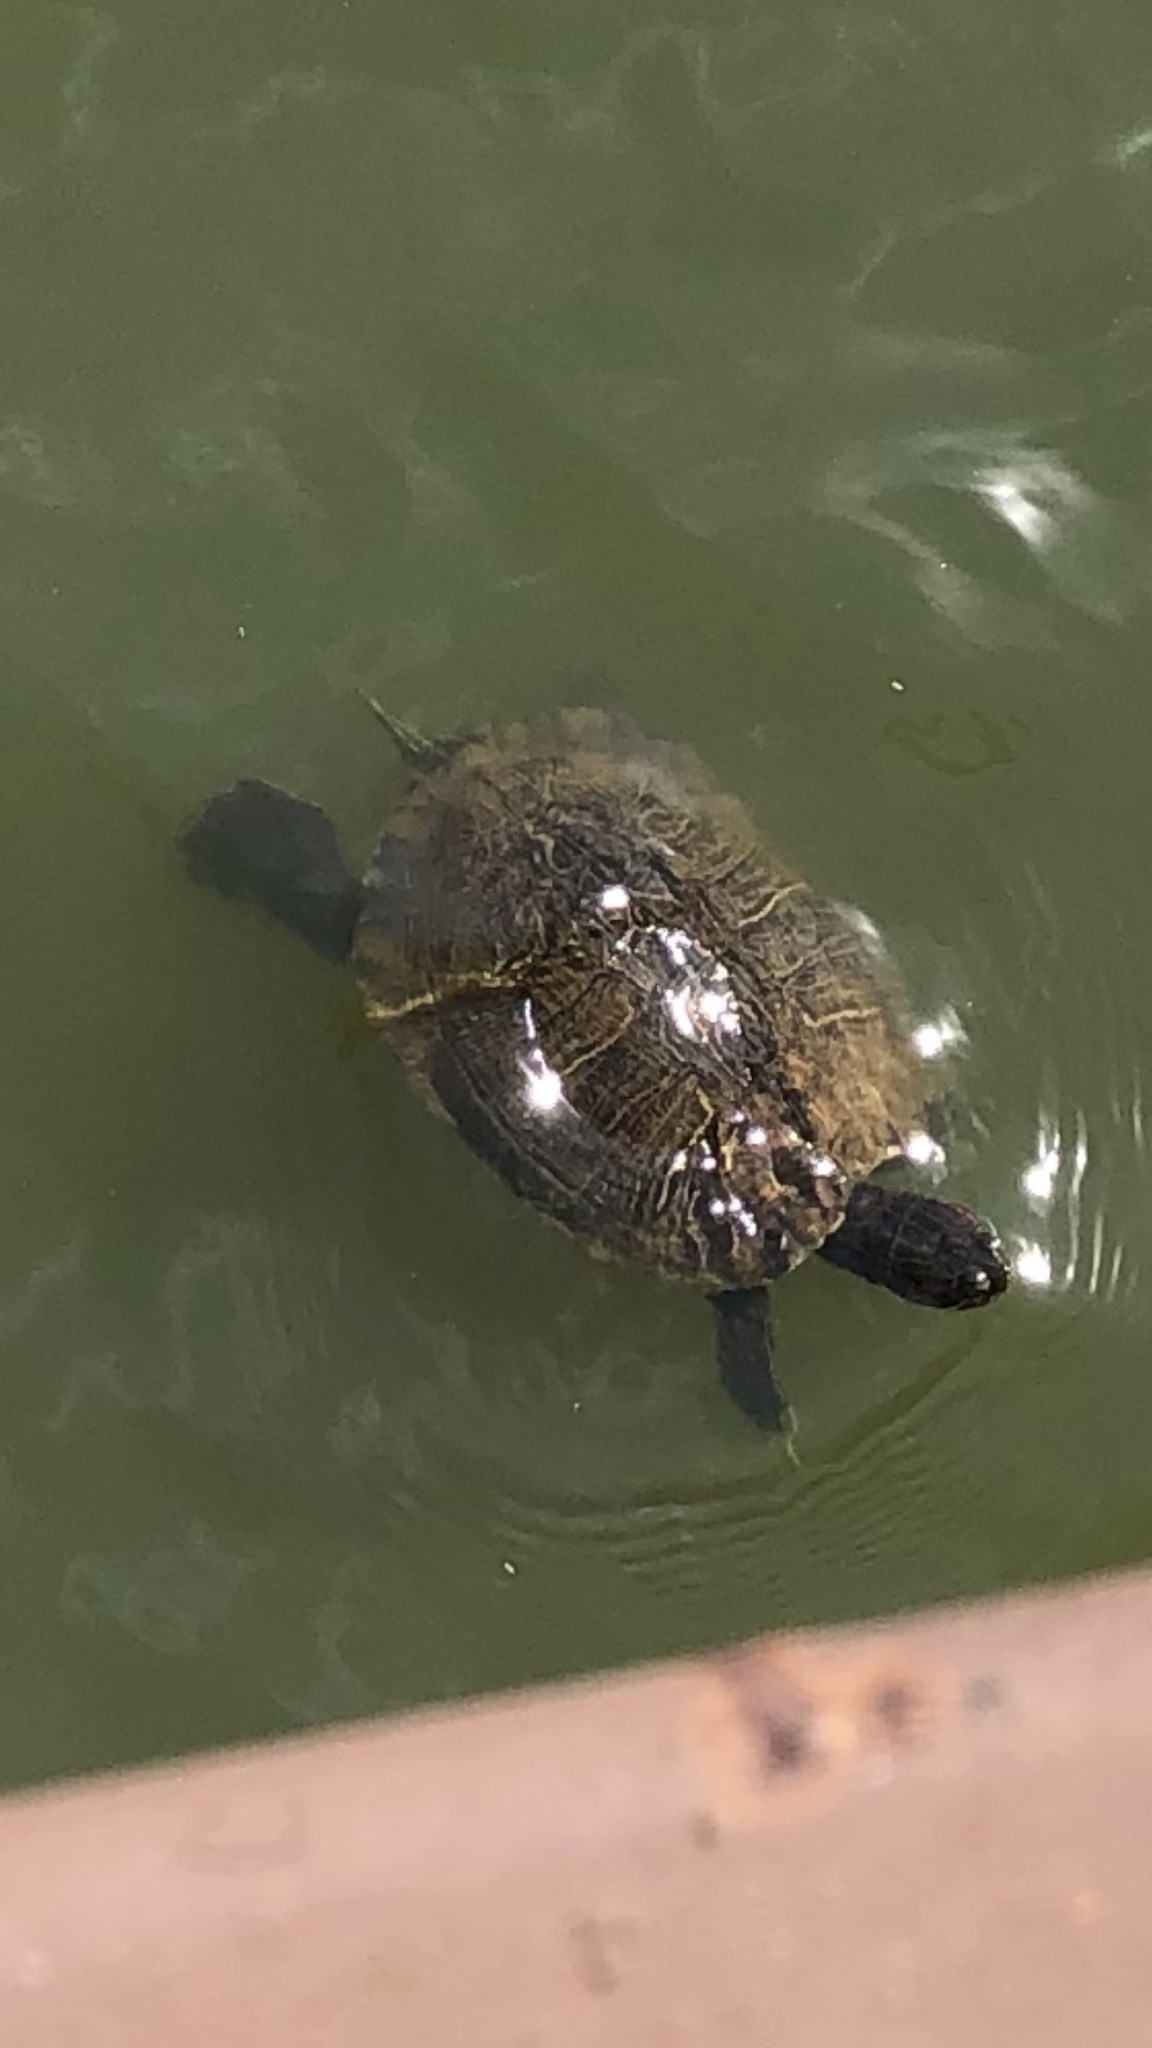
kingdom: Animalia
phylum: Chordata
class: Testudines
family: Emydidae
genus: Trachemys
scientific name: Trachemys scripta
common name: Slider
